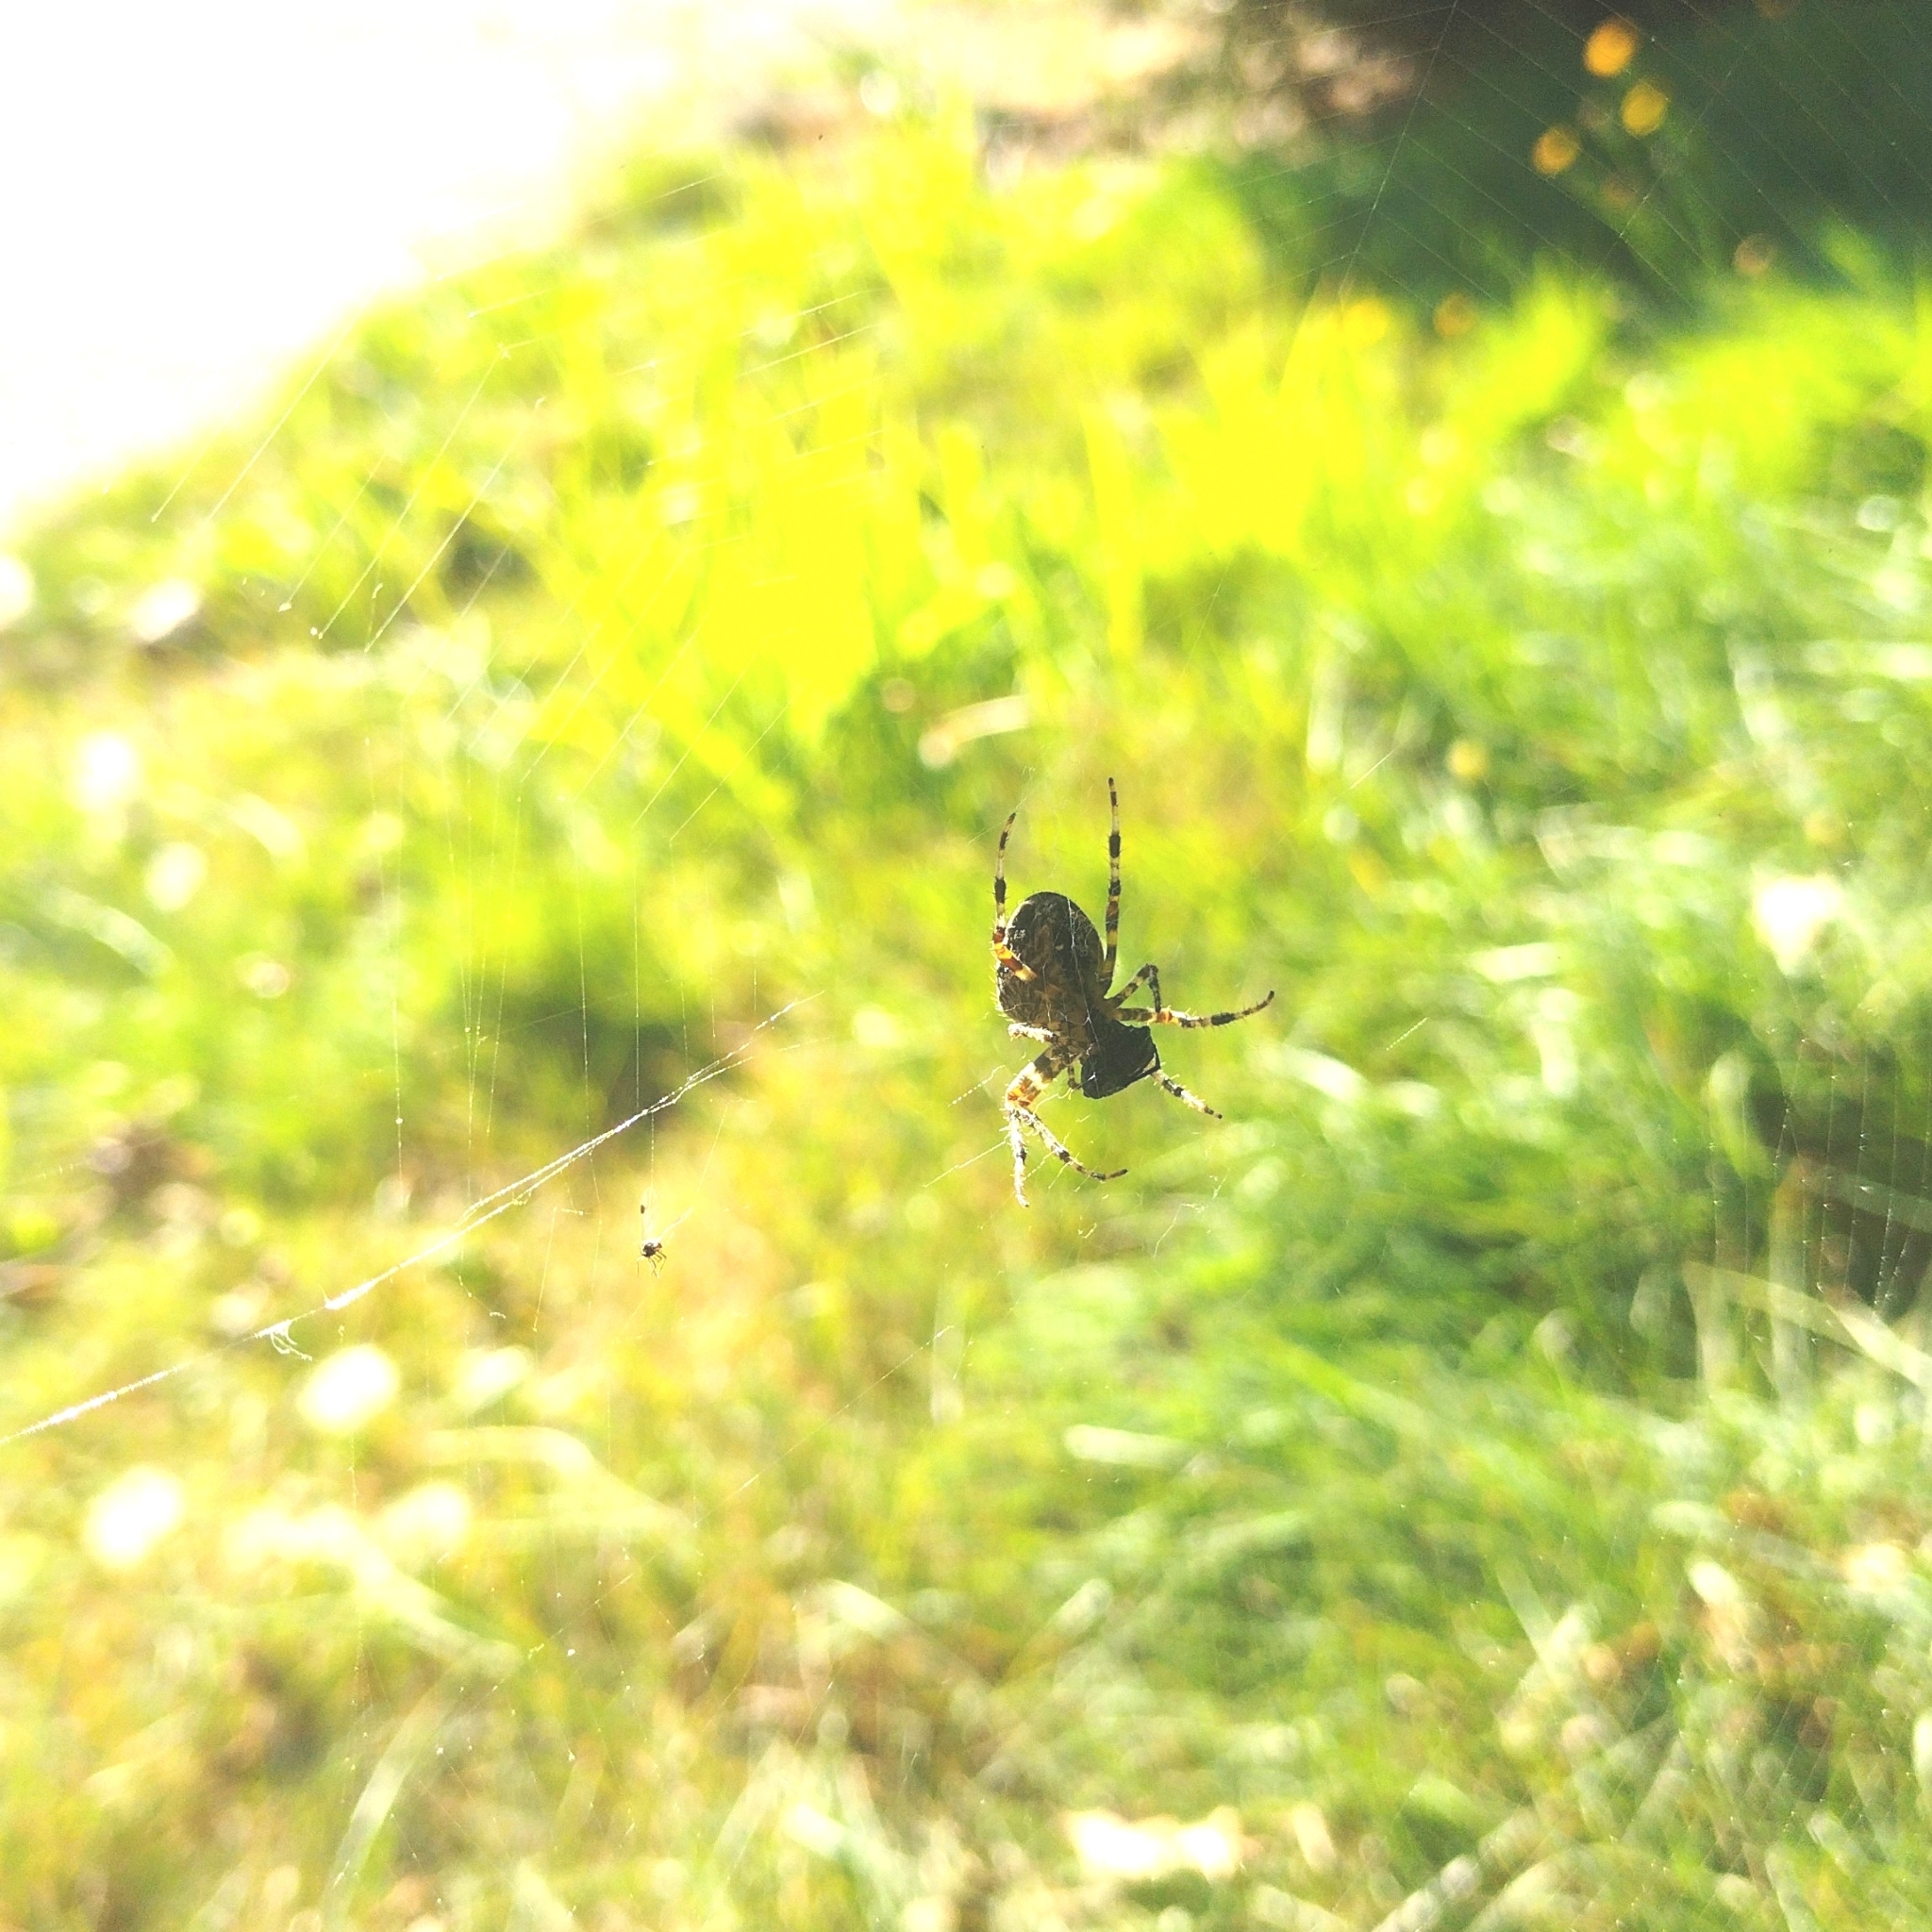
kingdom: Animalia
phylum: Arthropoda
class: Arachnida
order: Araneae
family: Araneidae
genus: Araneus
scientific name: Araneus diadematus
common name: Cross orbweaver
